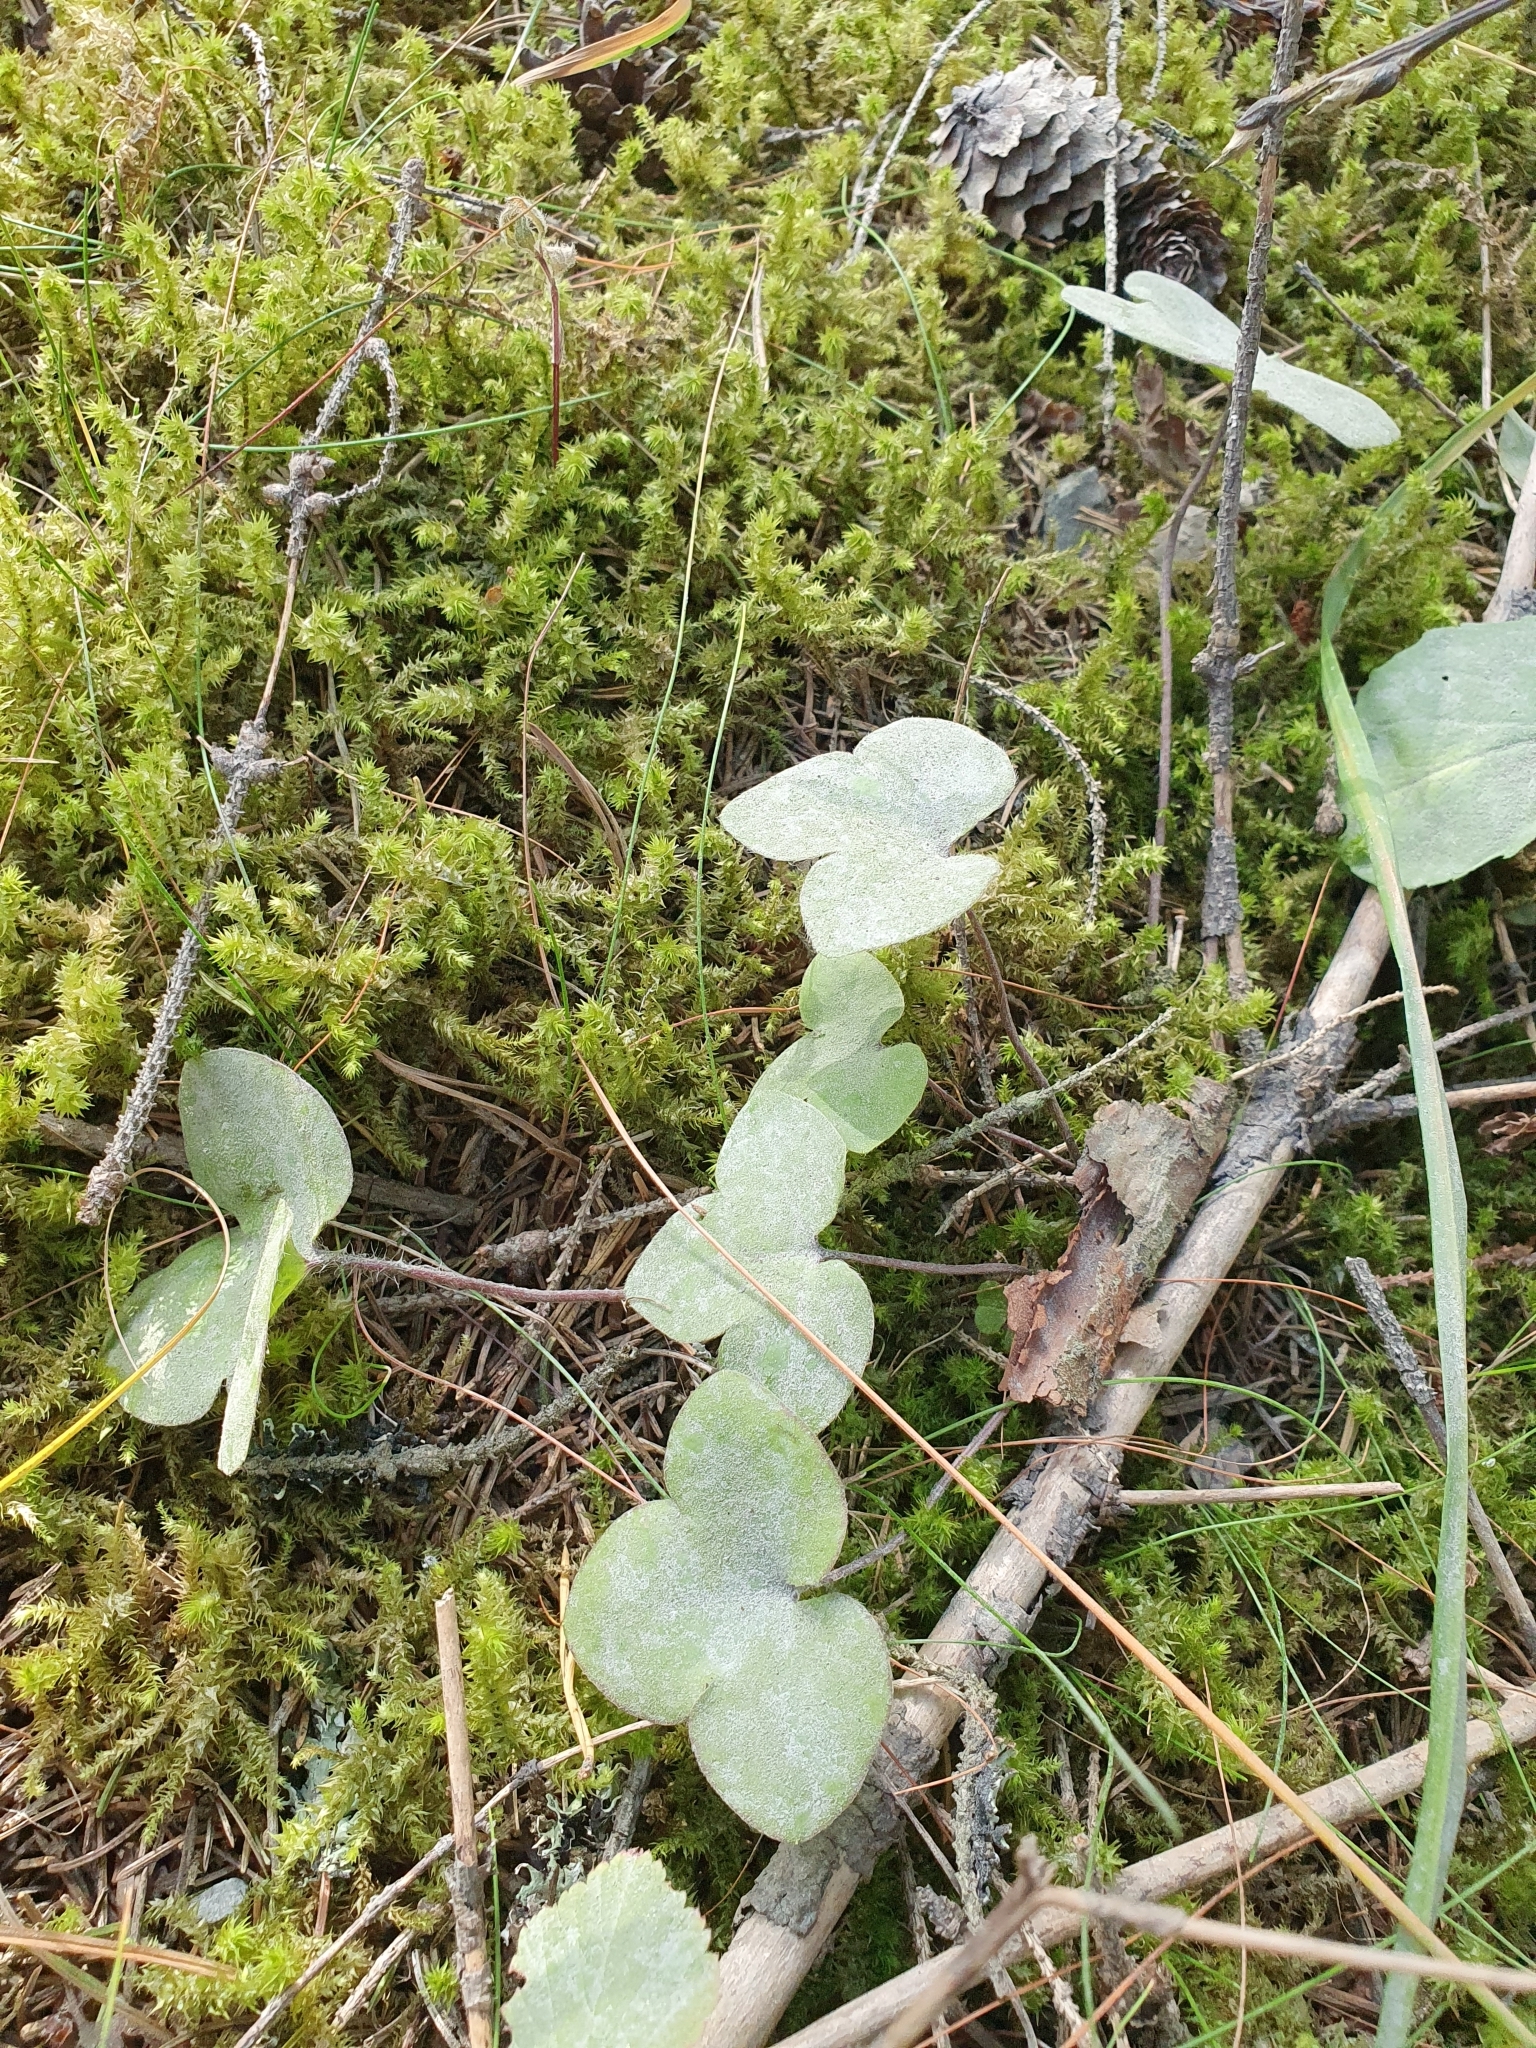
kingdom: Plantae
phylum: Tracheophyta
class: Magnoliopsida
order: Ranunculales
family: Ranunculaceae
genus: Hepatica
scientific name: Hepatica nobilis
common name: Liverleaf
